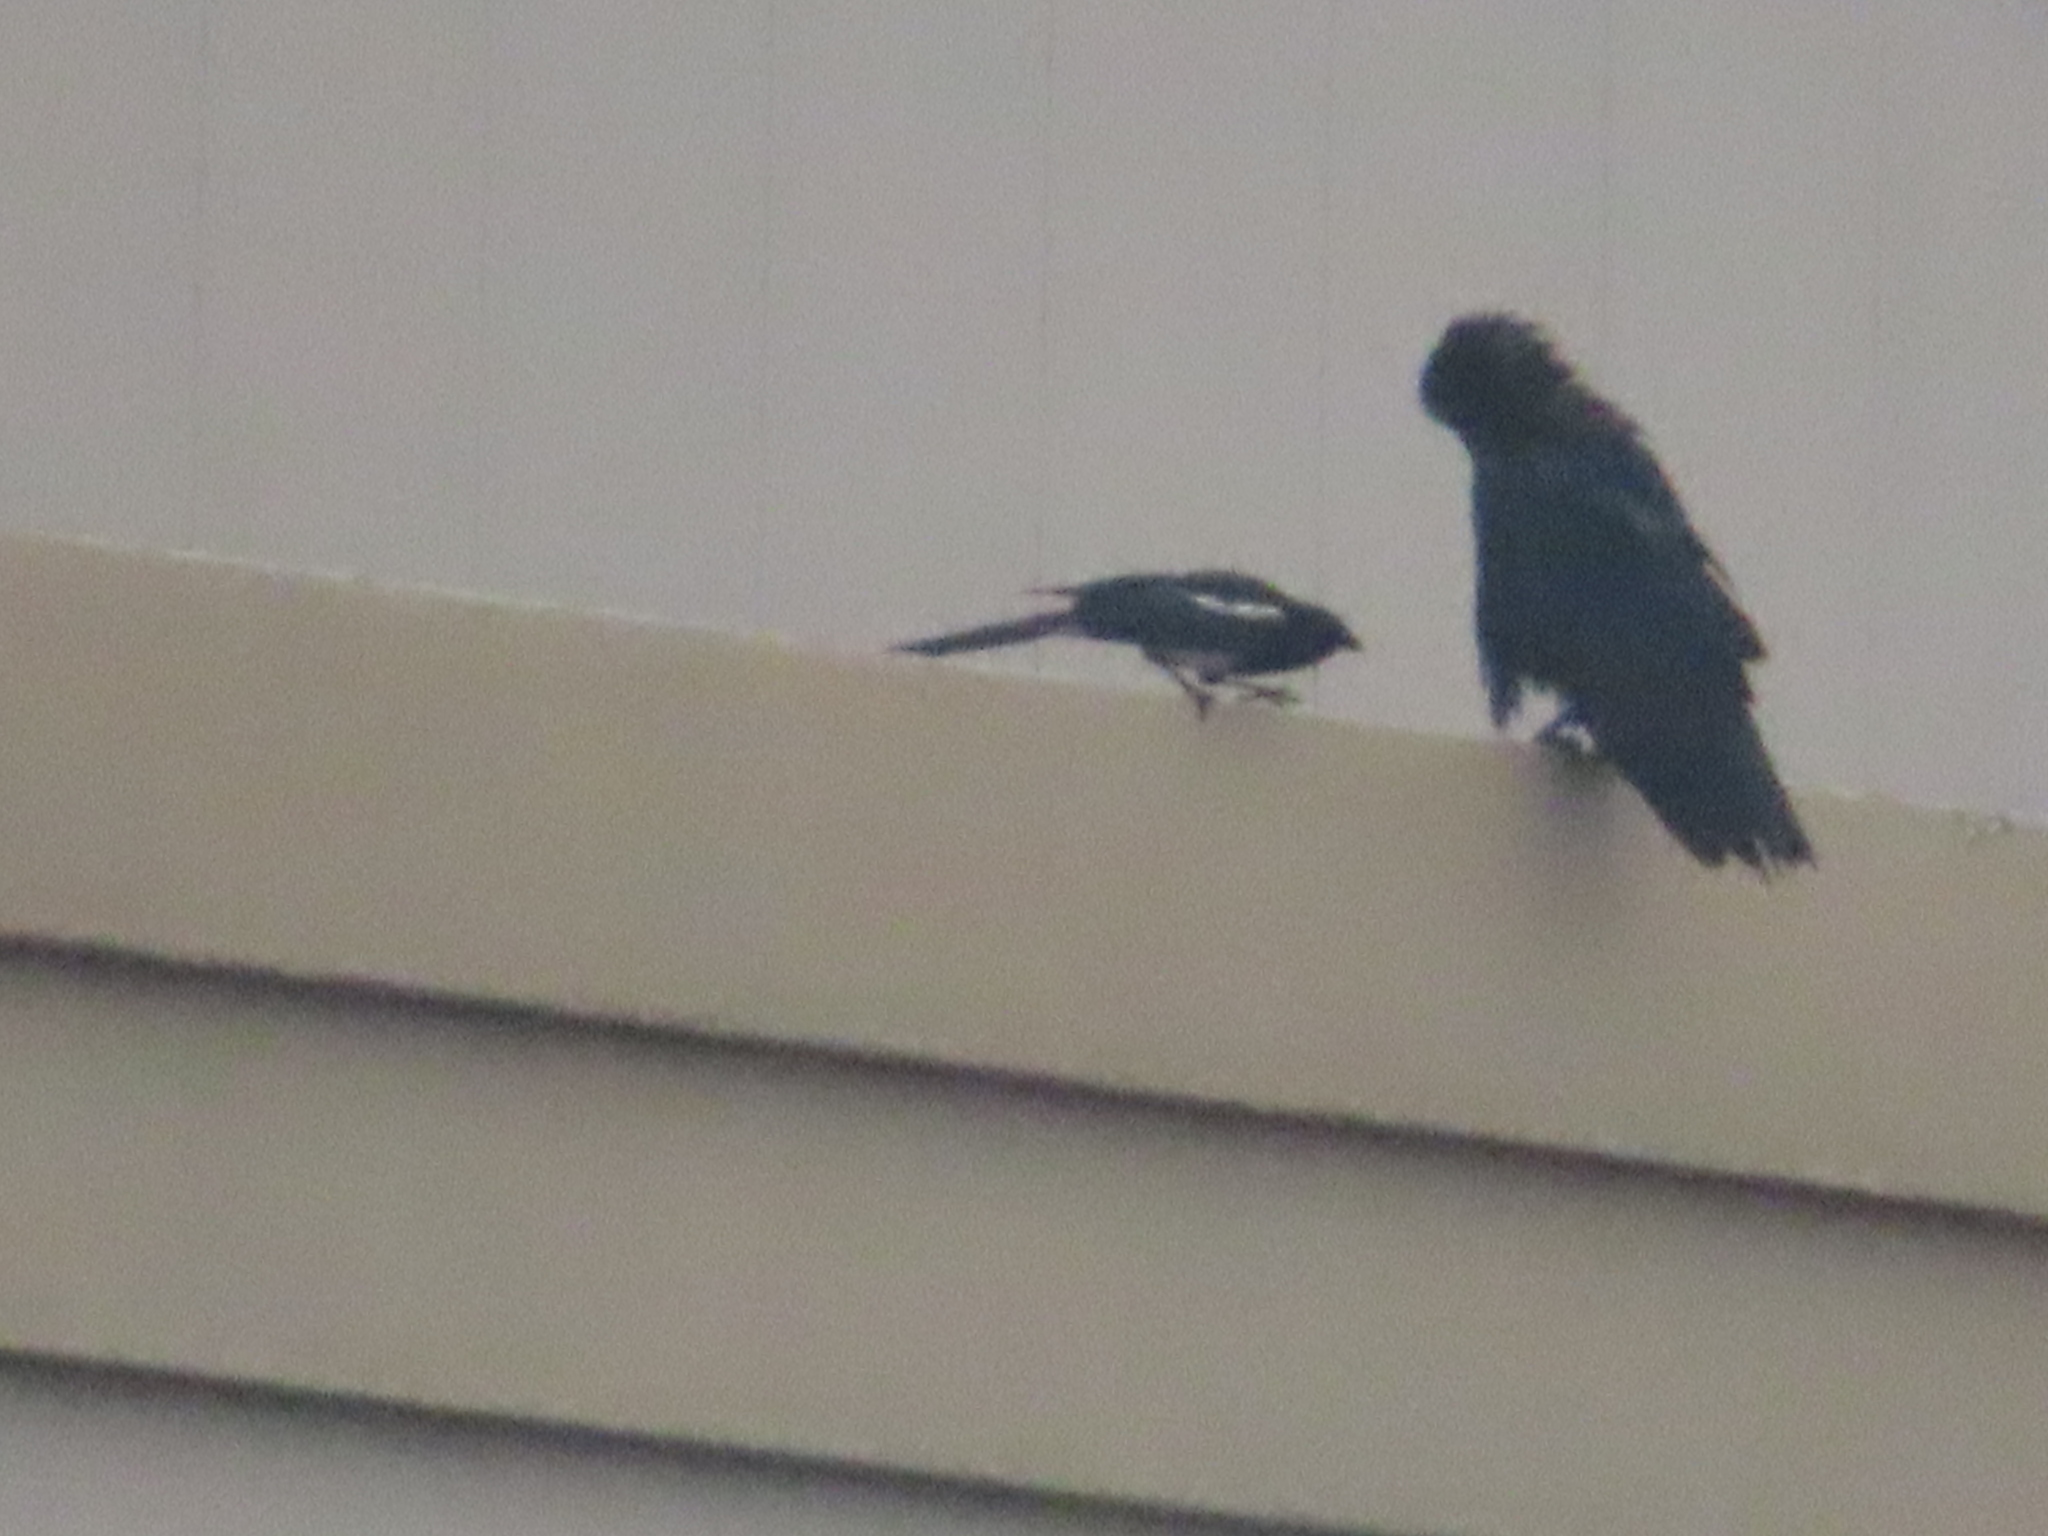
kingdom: Animalia
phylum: Chordata
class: Aves
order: Passeriformes
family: Corvidae
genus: Corvus
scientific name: Corvus corax
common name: Common raven
